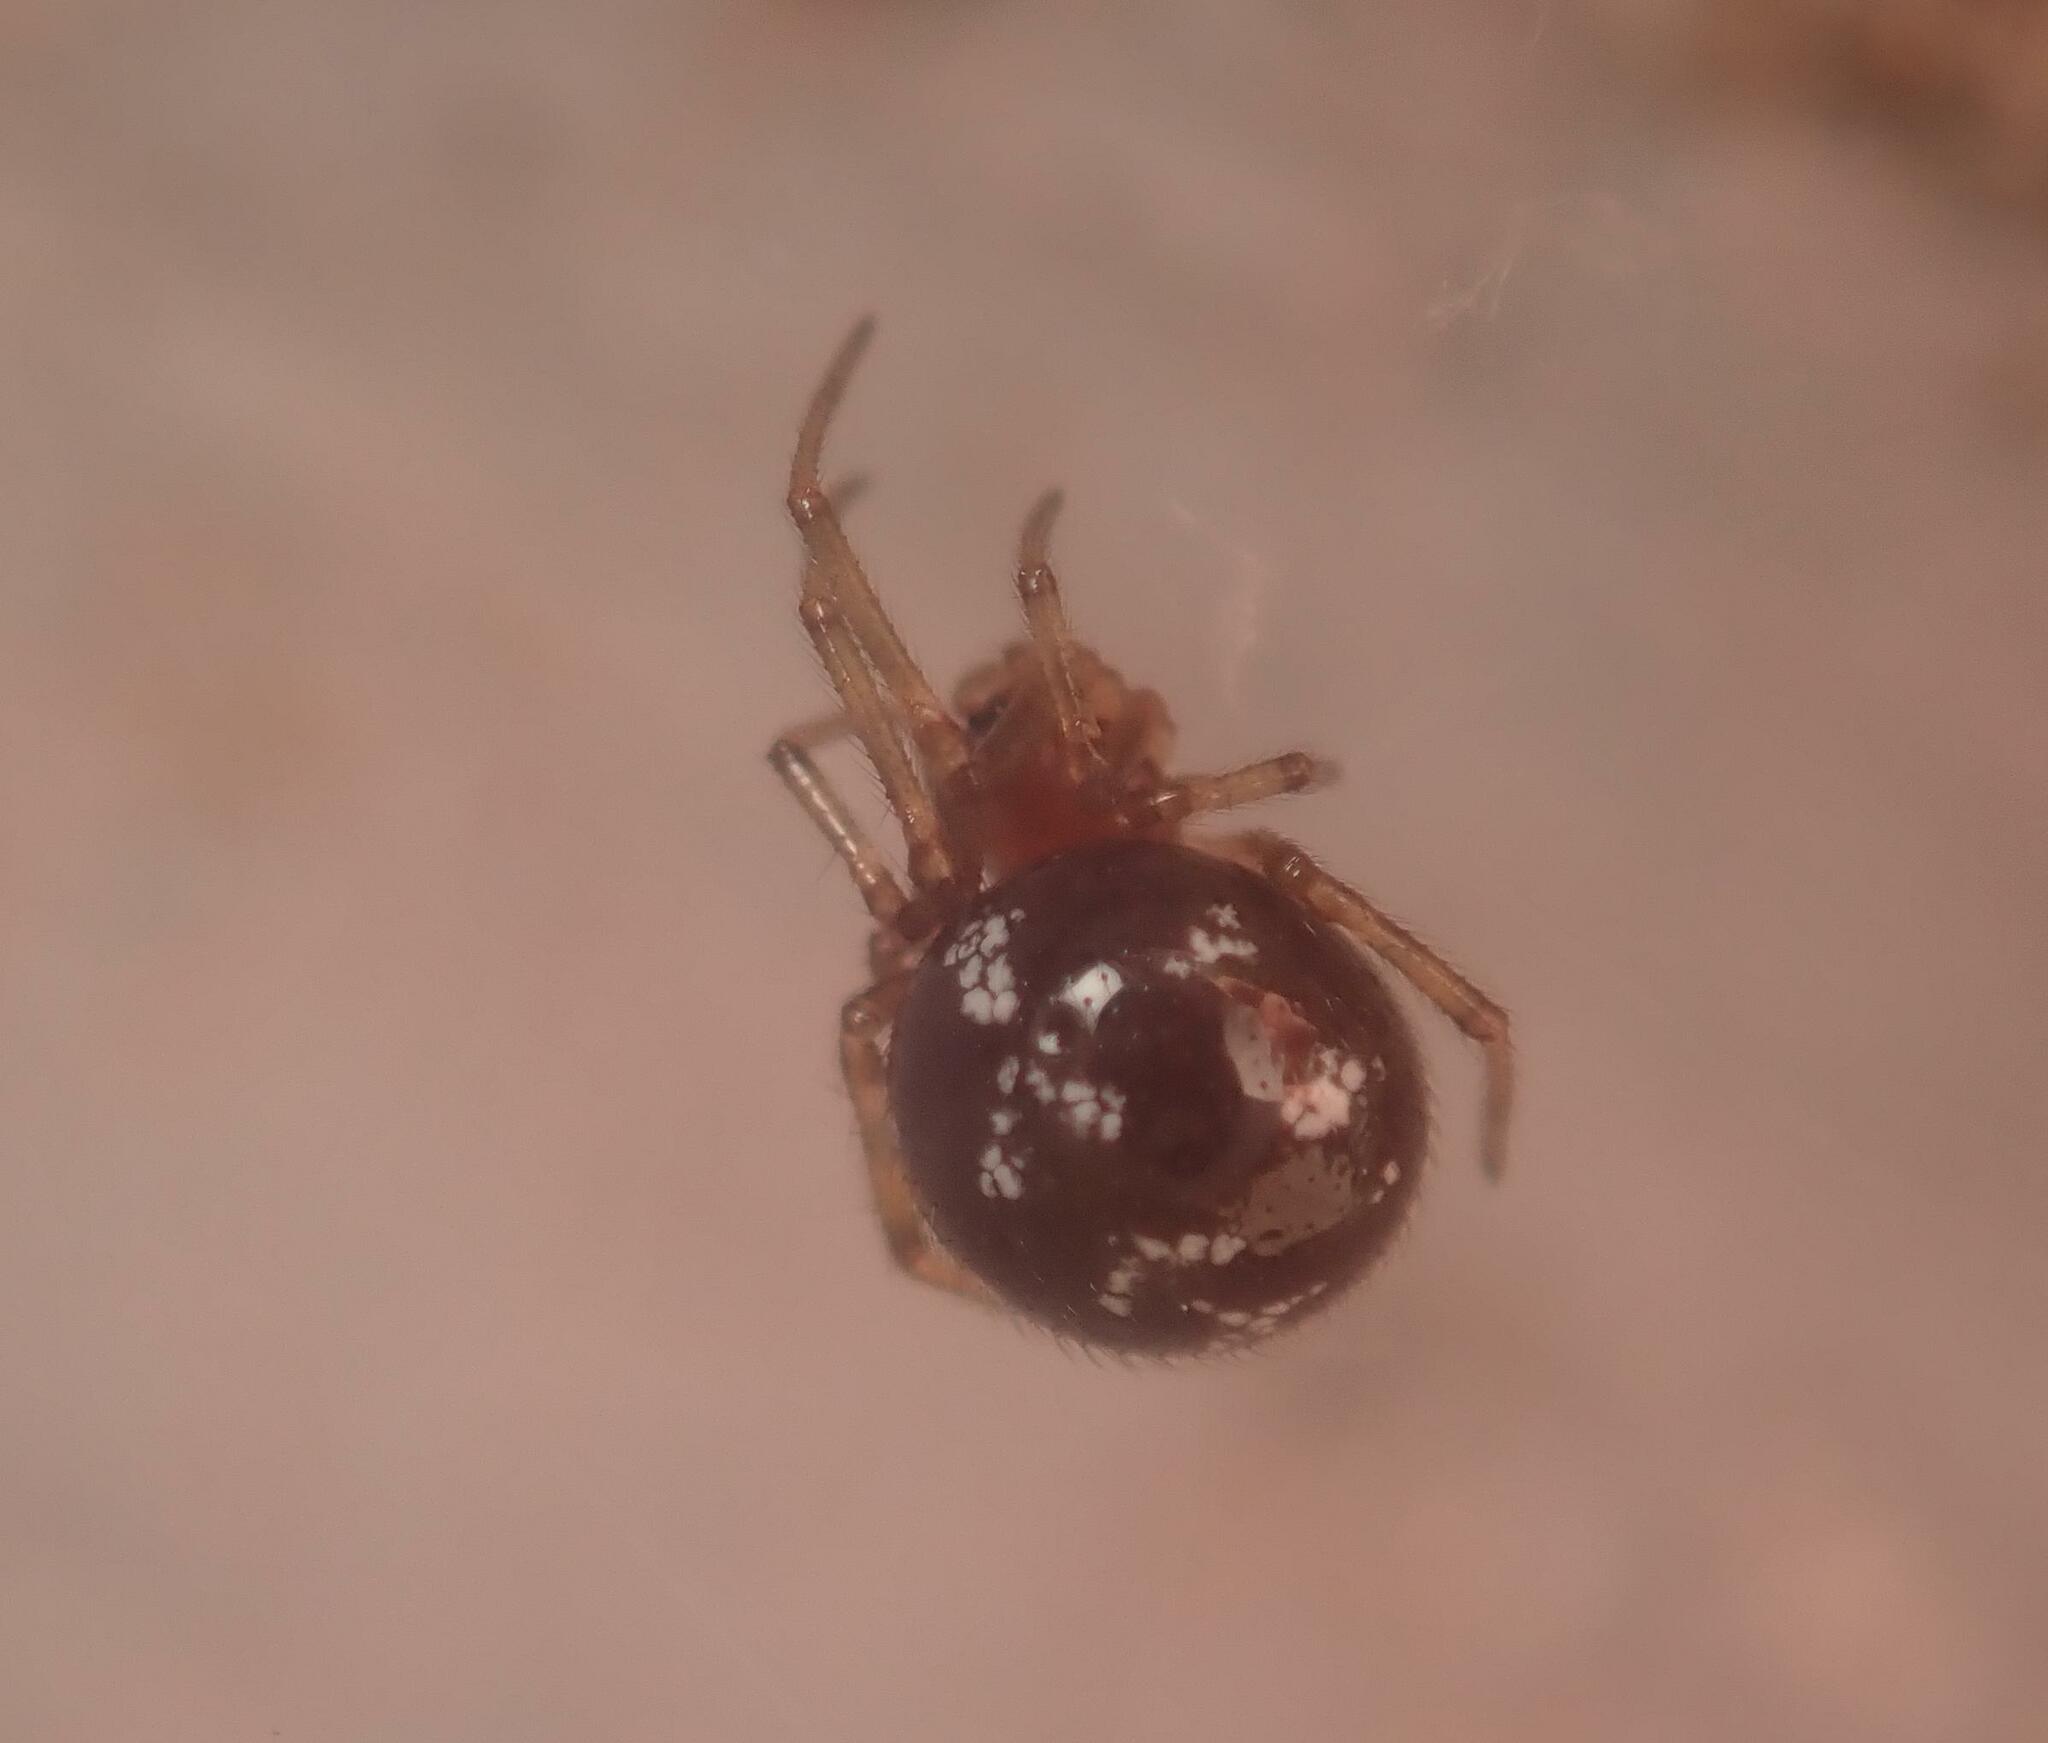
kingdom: Animalia
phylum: Arthropoda
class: Arachnida
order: Araneae
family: Theridiidae
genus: Steatoda
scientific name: Steatoda triangulosa
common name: Triangulate bud spider
